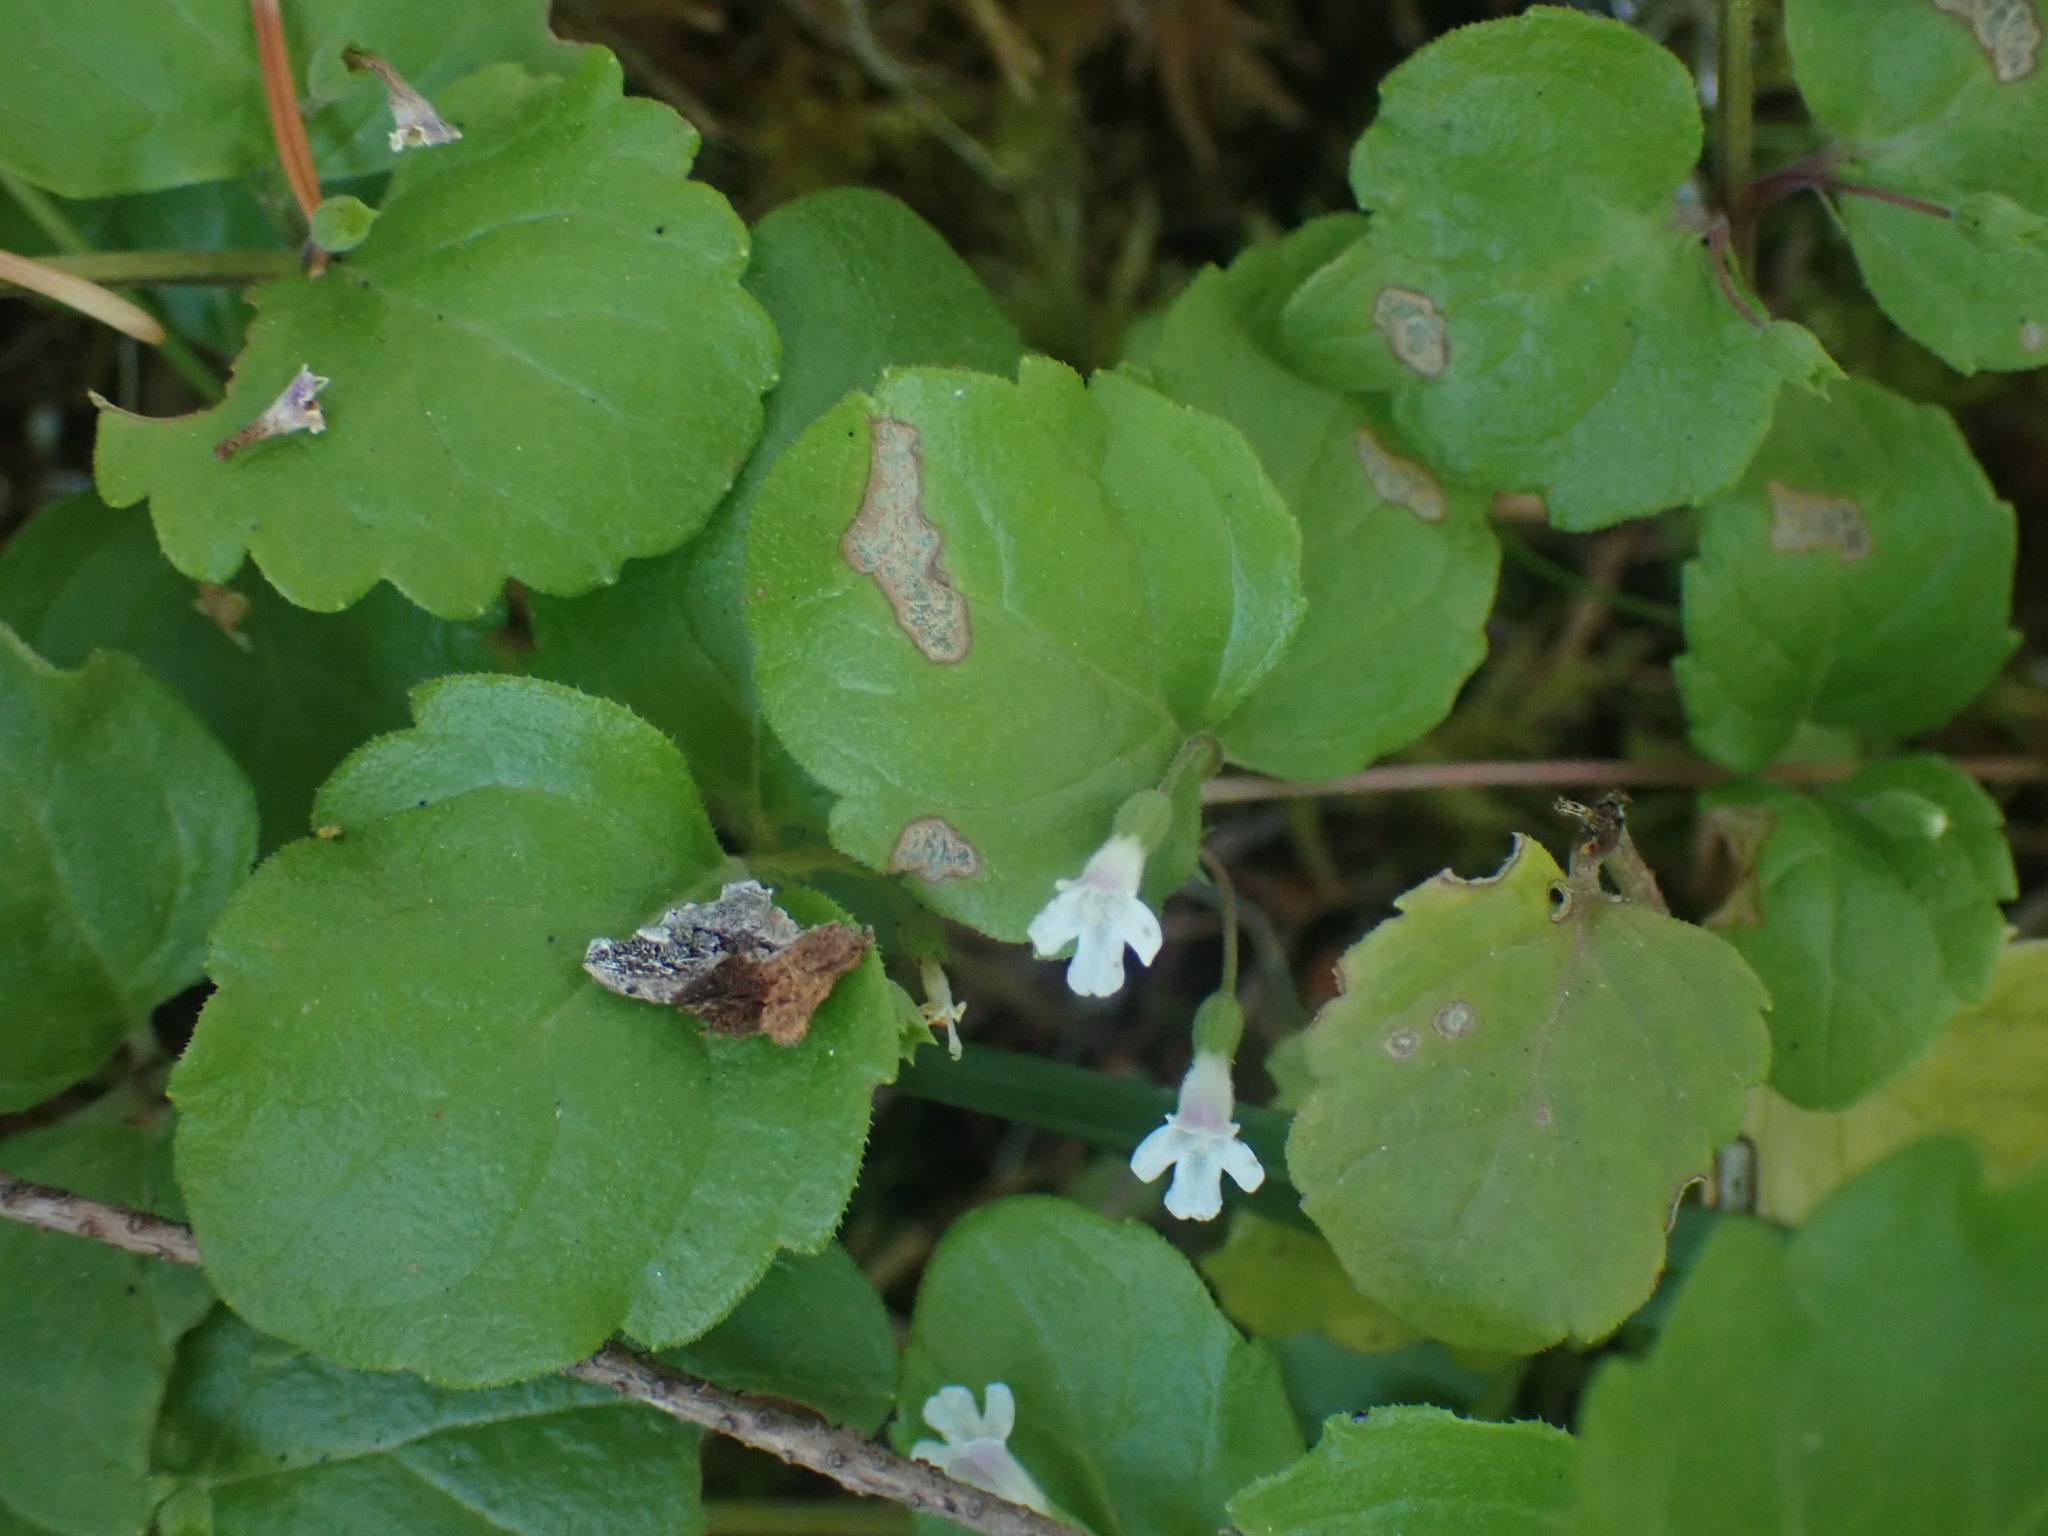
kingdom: Plantae
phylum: Tracheophyta
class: Magnoliopsida
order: Lamiales
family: Lamiaceae
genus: Micromeria
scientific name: Micromeria douglasii
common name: Yerba buena
